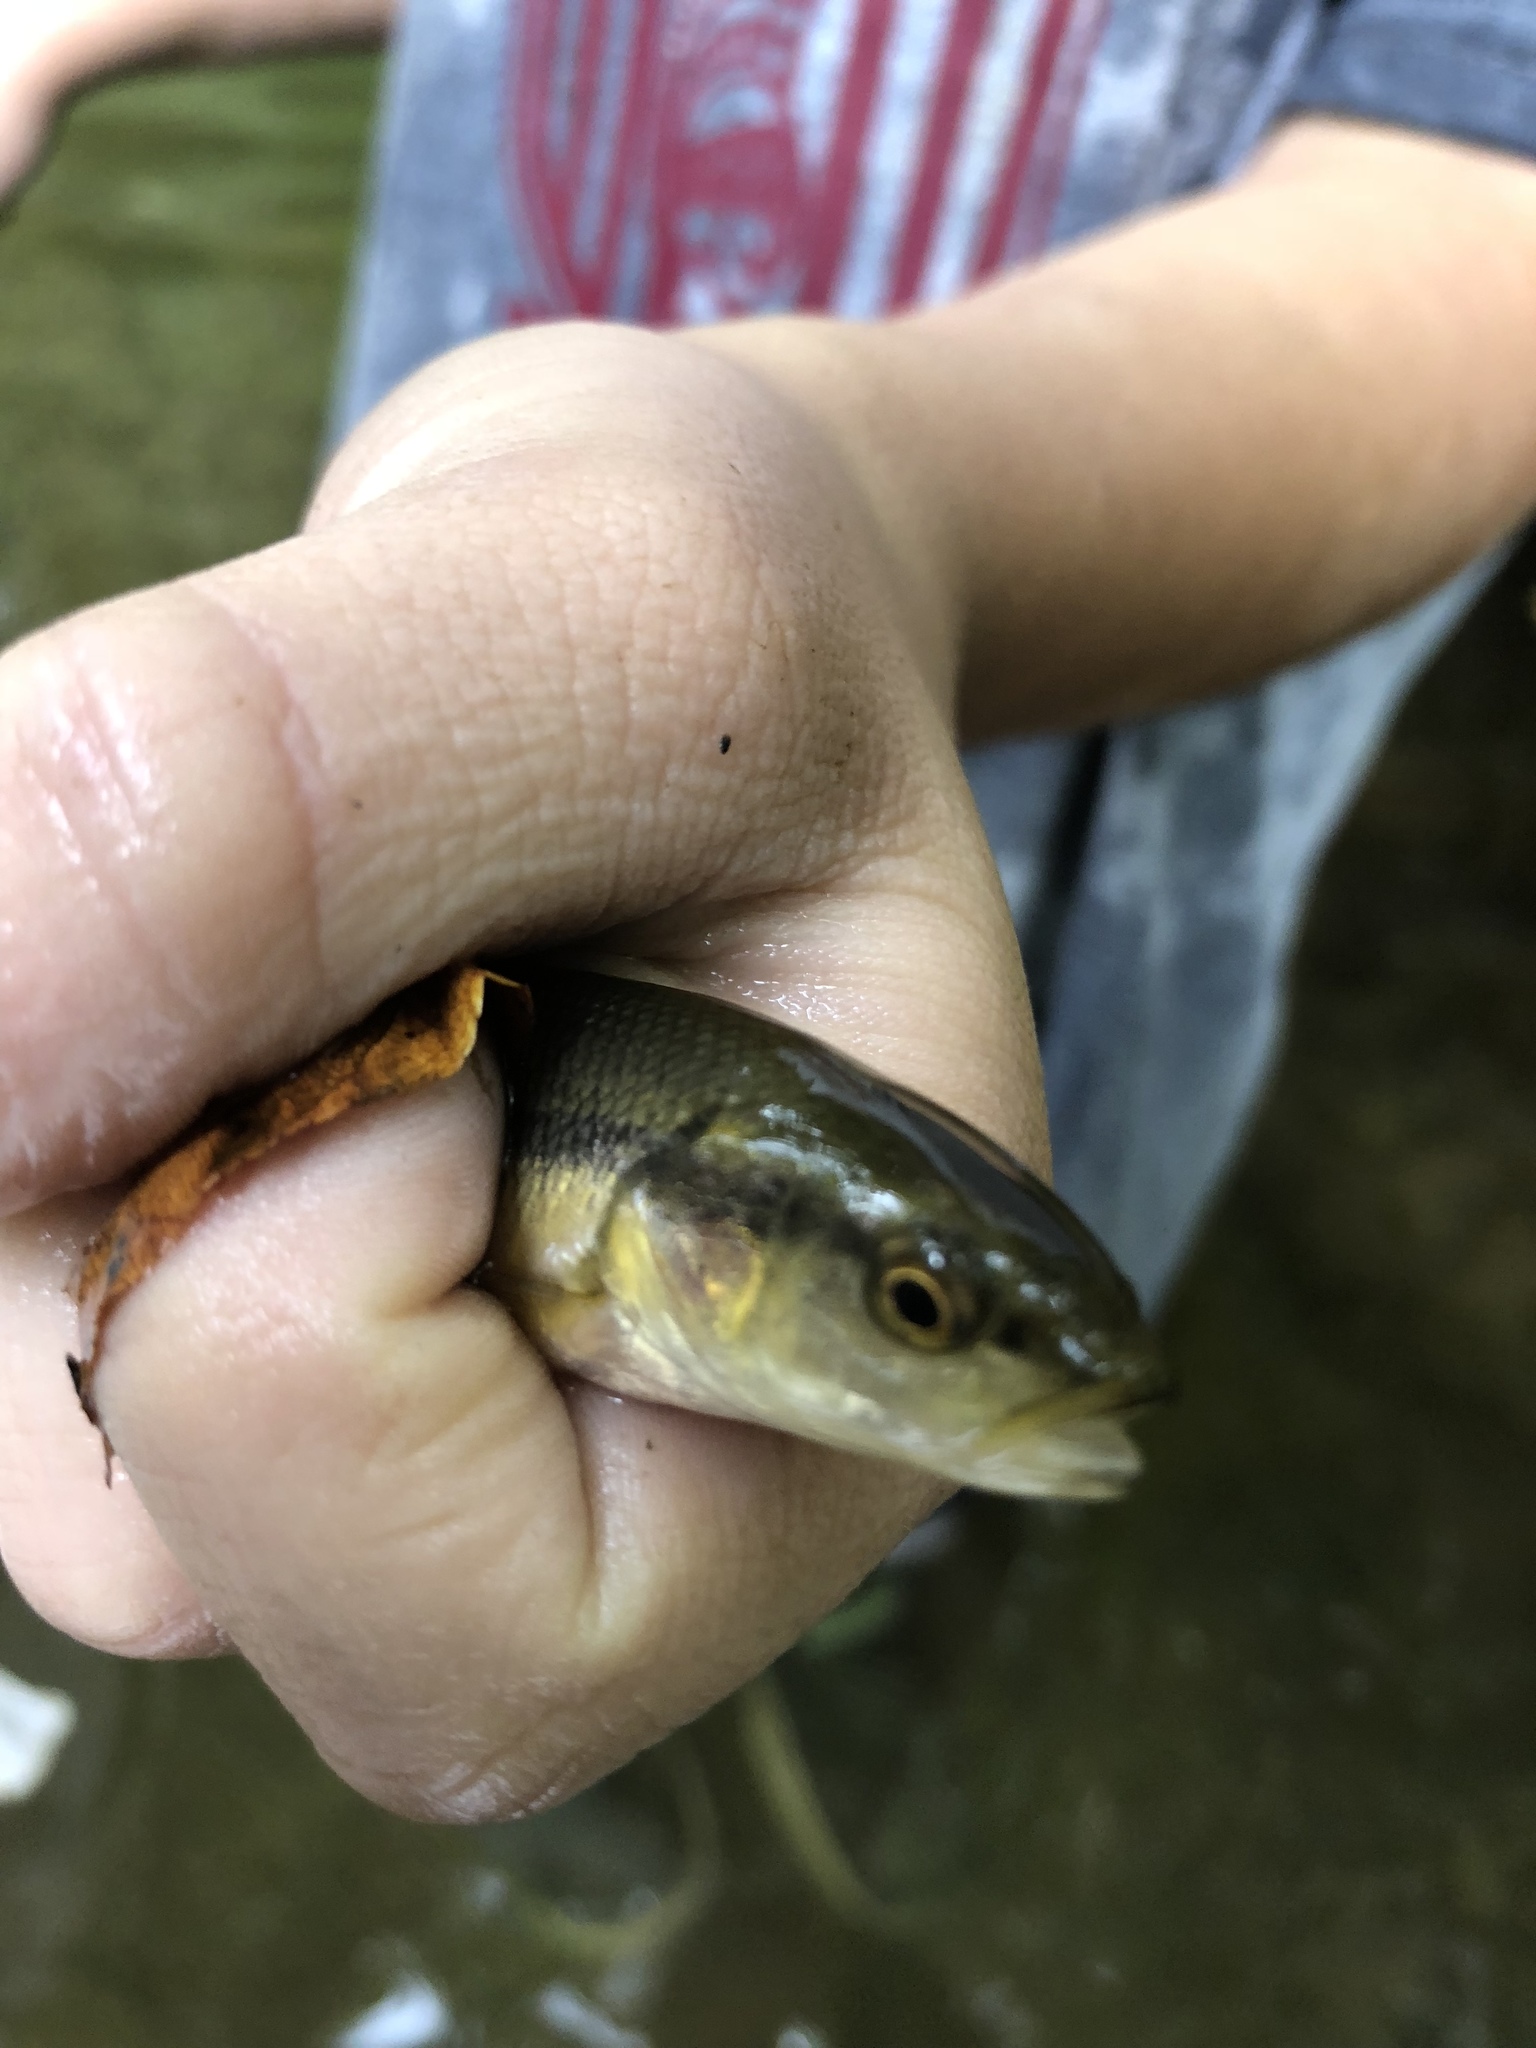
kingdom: Animalia
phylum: Chordata
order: Cypriniformes
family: Cyprinidae
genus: Semotilus
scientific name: Semotilus atromaculatus
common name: Creek chub
